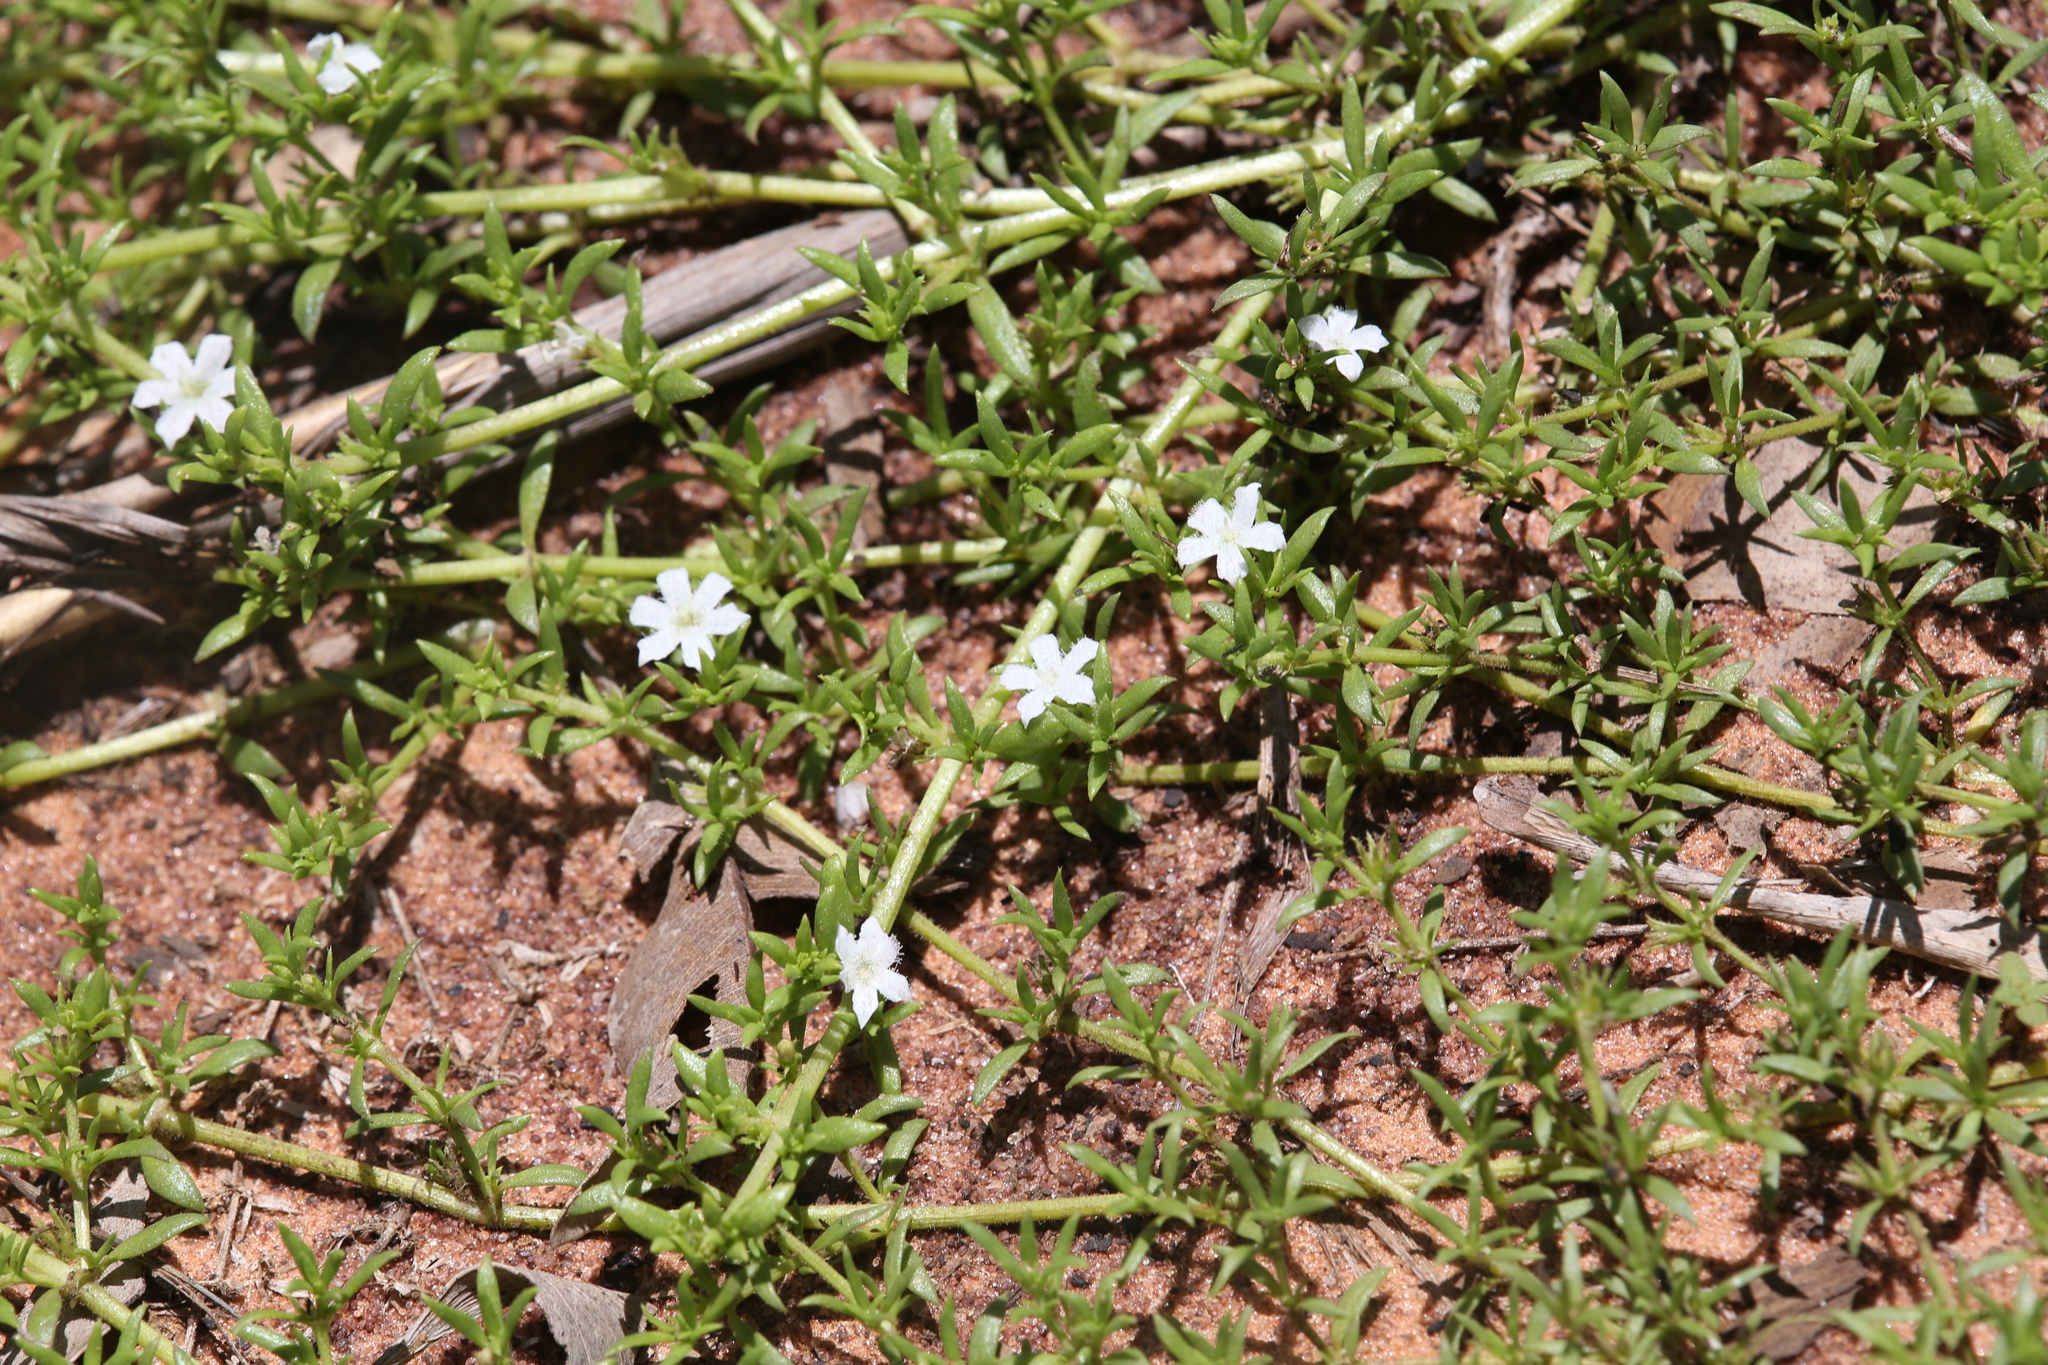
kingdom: Plantae
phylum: Tracheophyta
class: Magnoliopsida
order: Gentianales
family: Rubiaceae
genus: Dentella
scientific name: Dentella misera
